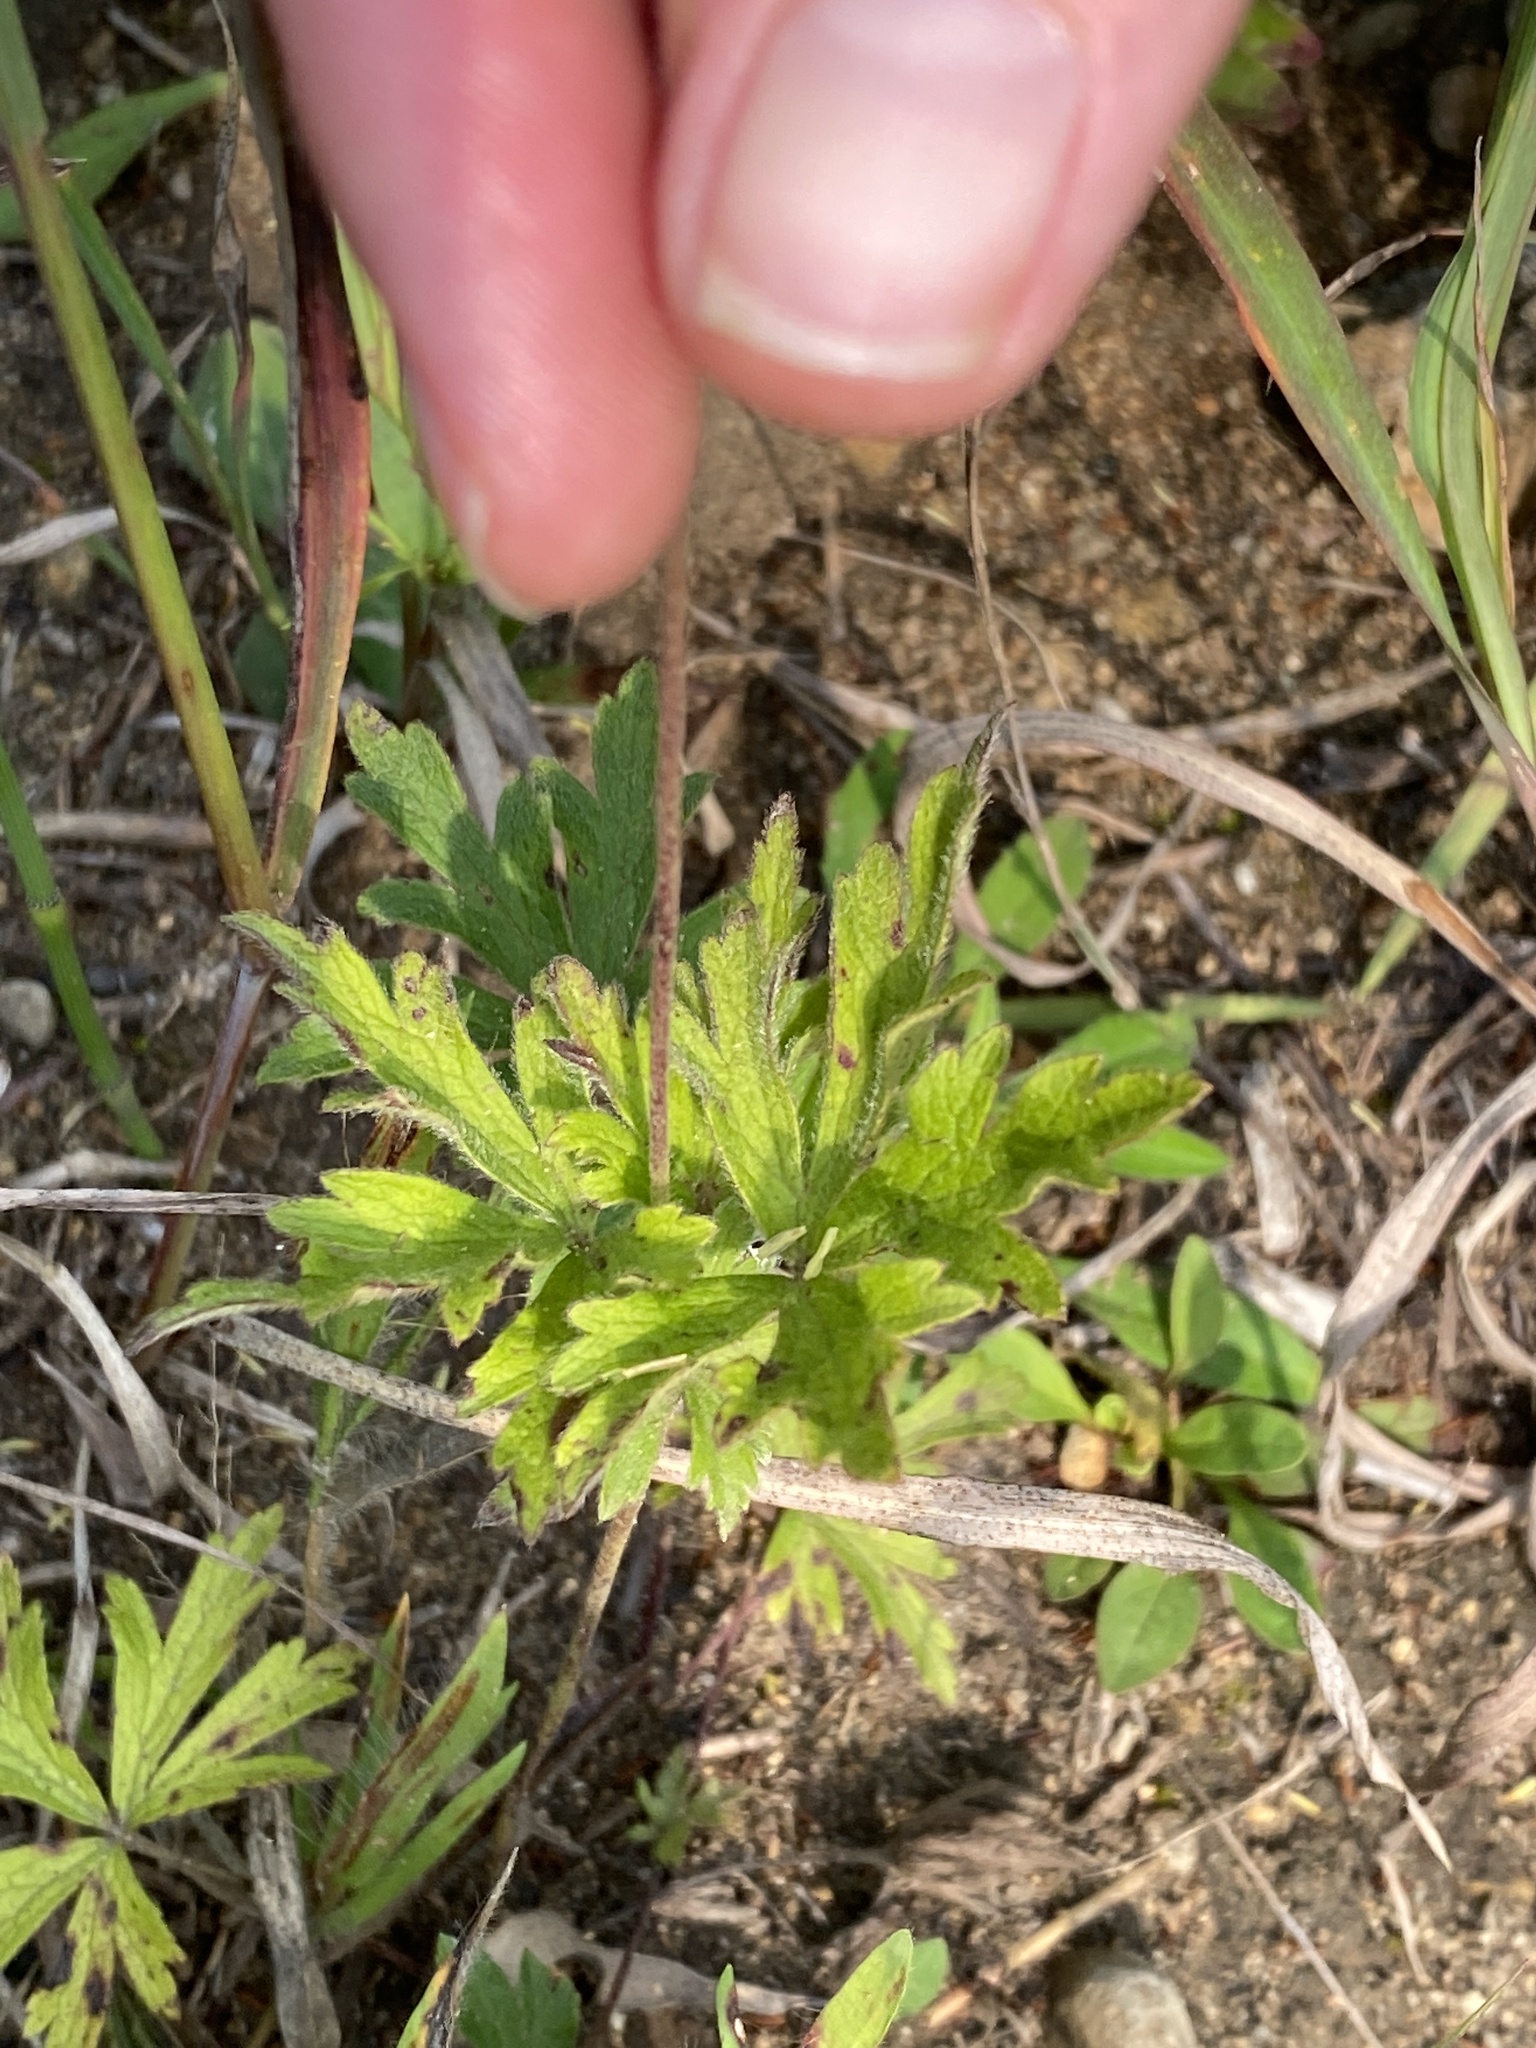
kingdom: Plantae
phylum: Tracheophyta
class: Magnoliopsida
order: Ranunculales
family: Ranunculaceae
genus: Anemone
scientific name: Anemone cylindrica
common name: Candle anemone
